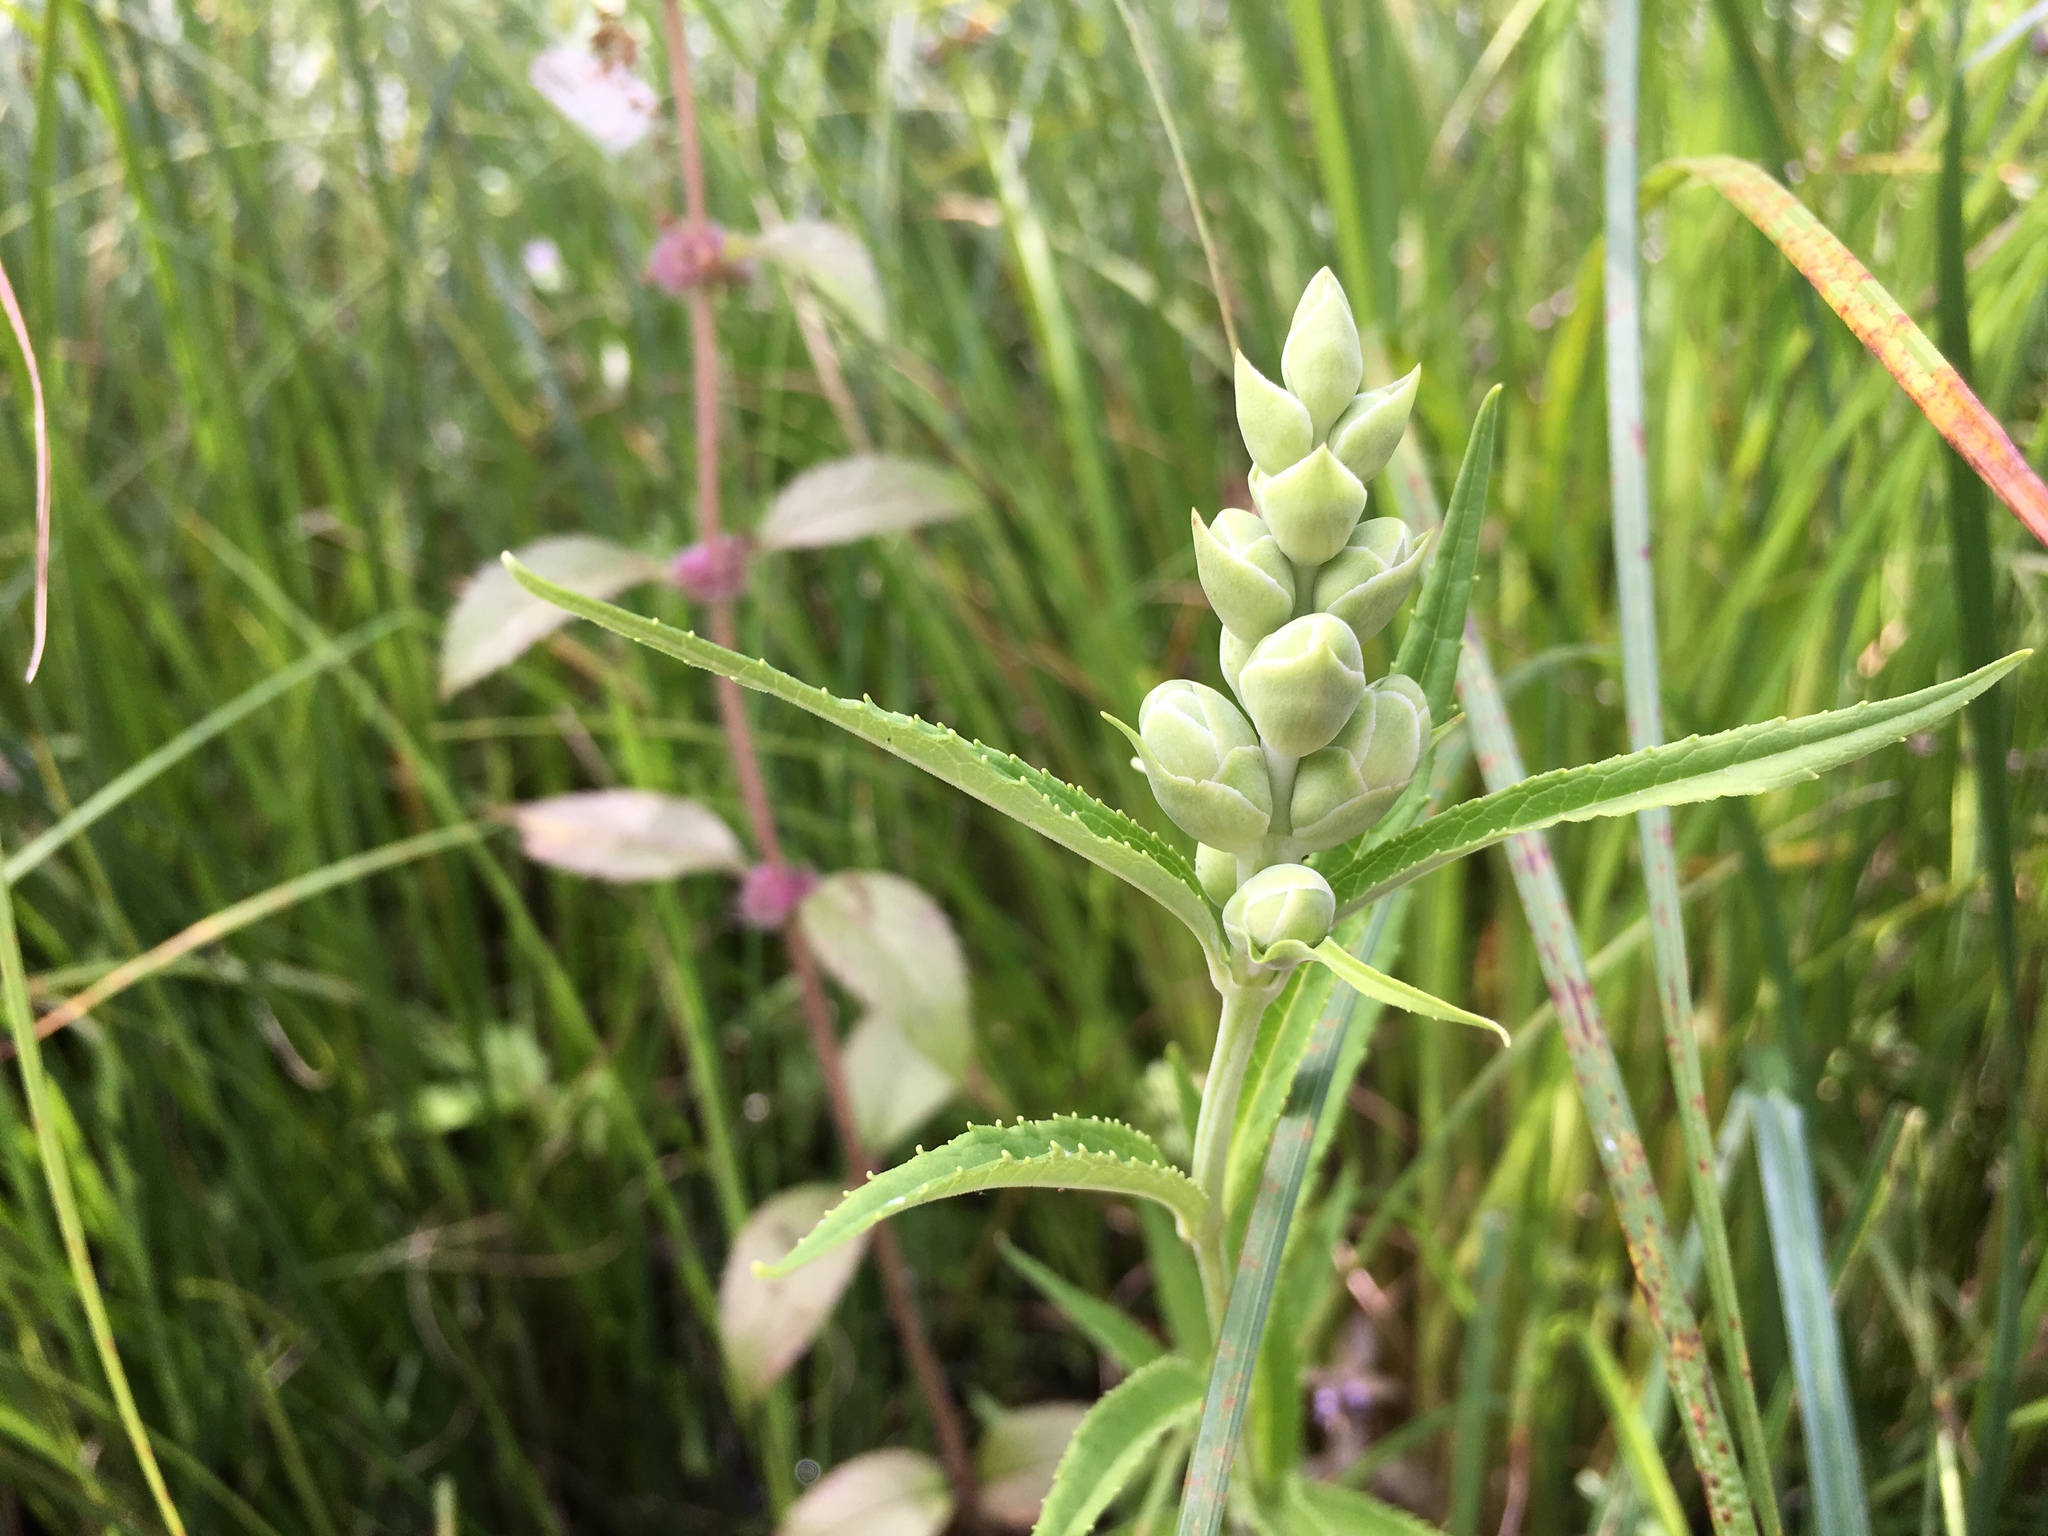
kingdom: Plantae
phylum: Tracheophyta
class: Magnoliopsida
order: Lamiales
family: Plantaginaceae
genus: Chelone
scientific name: Chelone glabra
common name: Snakehead
